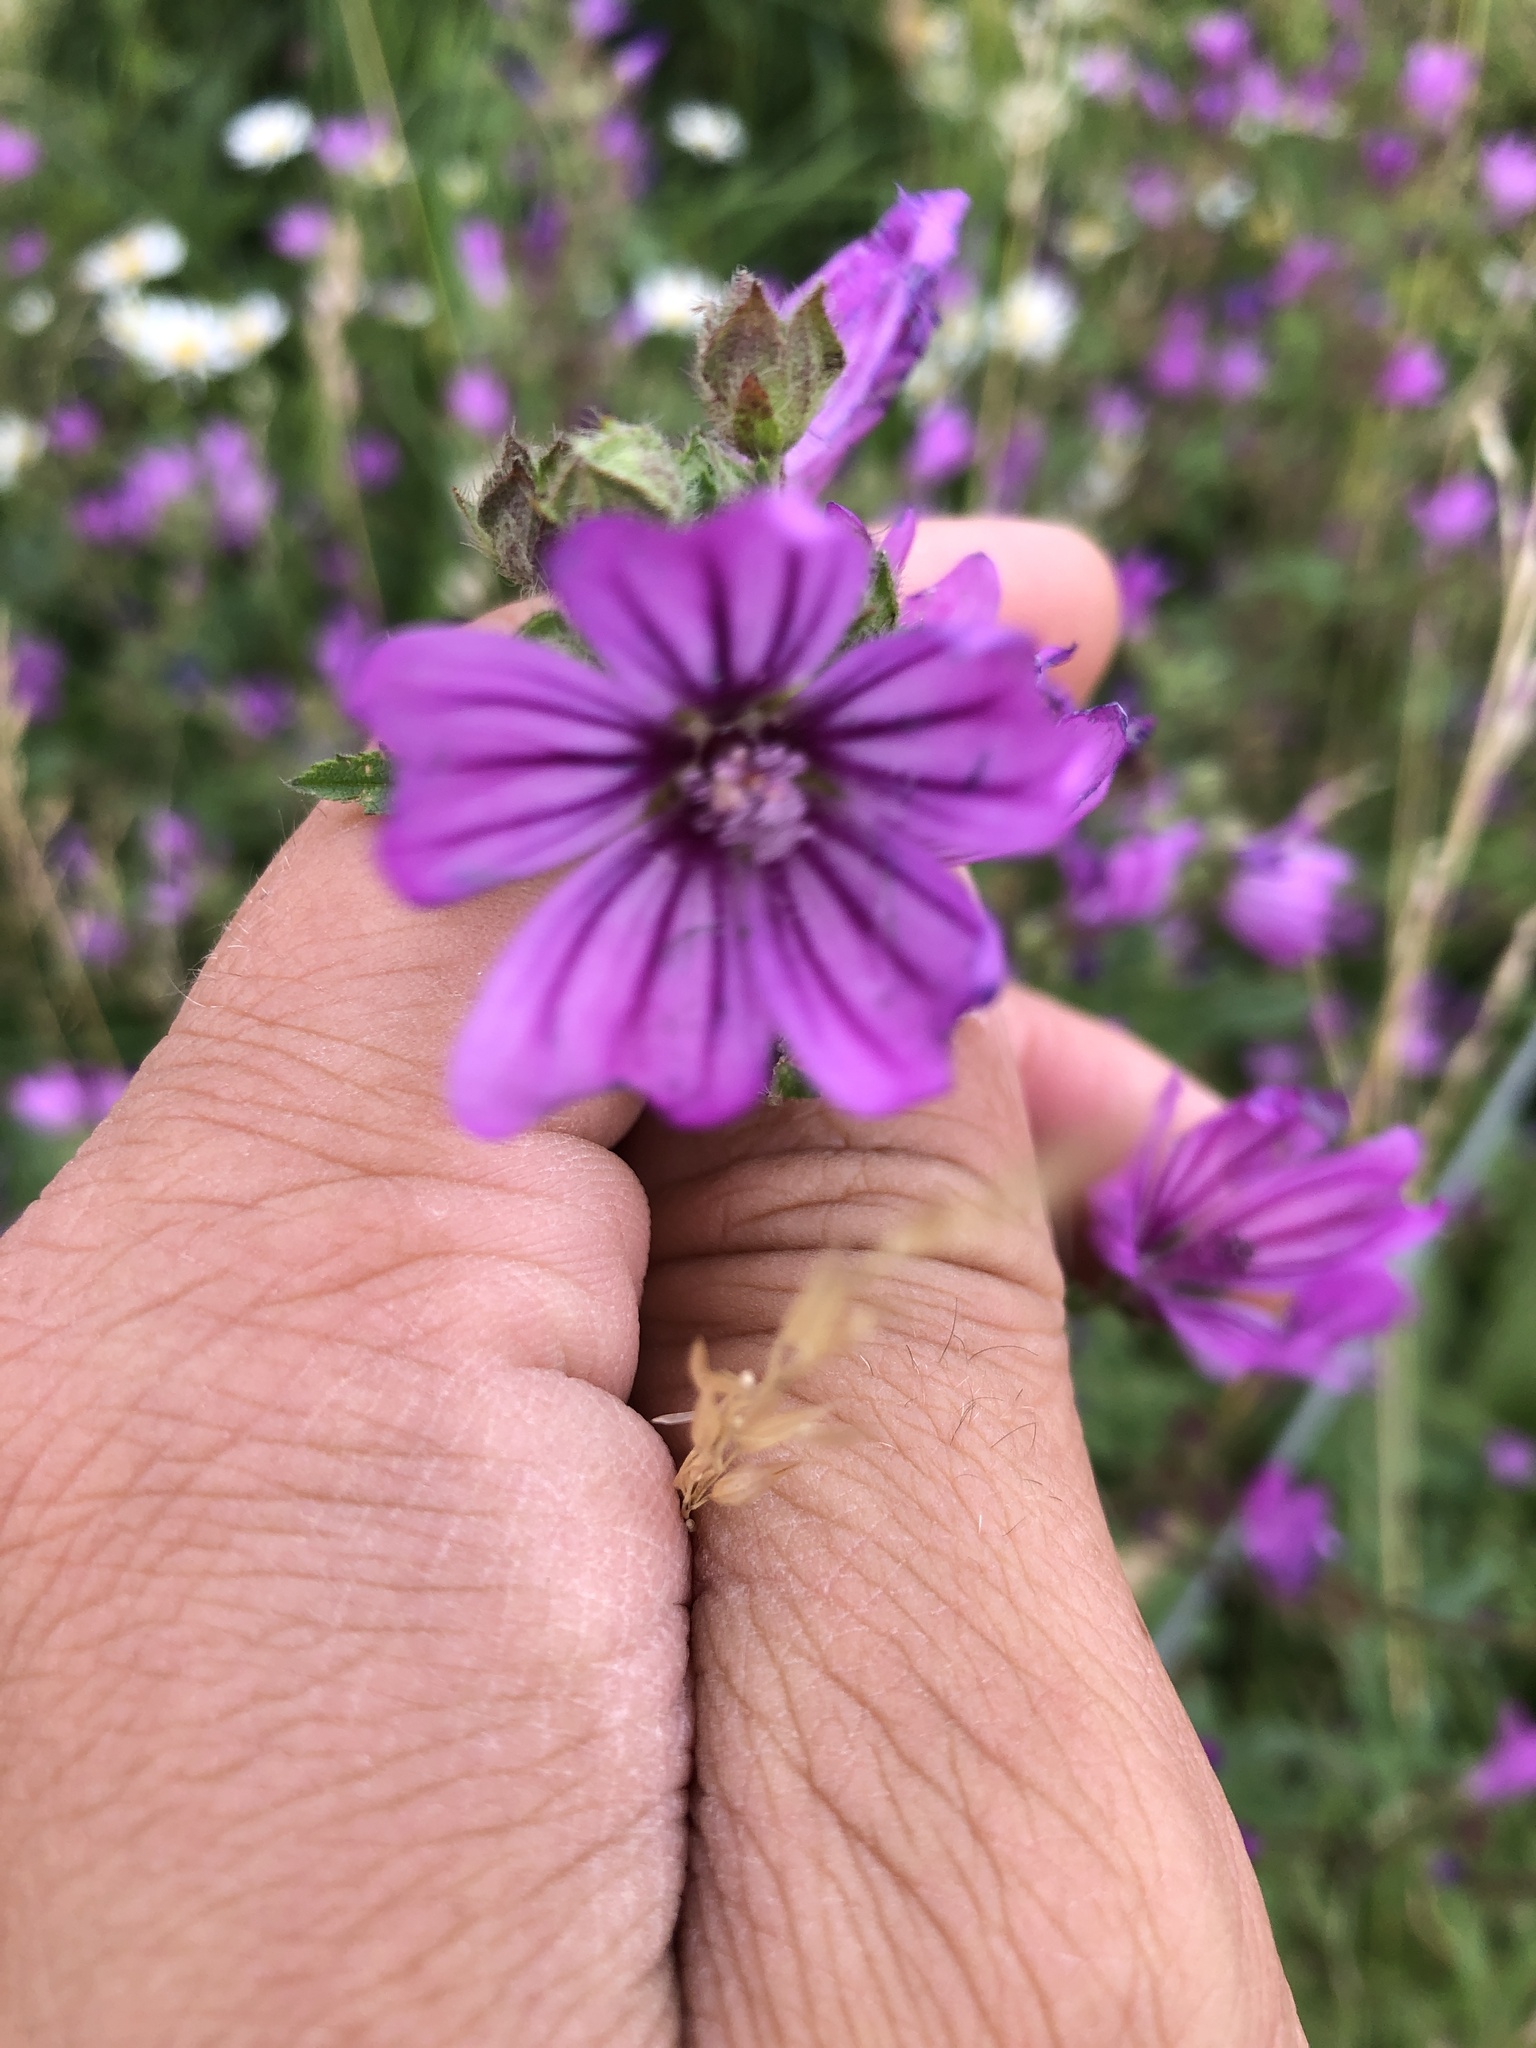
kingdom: Plantae
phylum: Tracheophyta
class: Magnoliopsida
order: Malvales
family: Malvaceae
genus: Malva
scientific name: Malva sylvestris
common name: Common mallow
